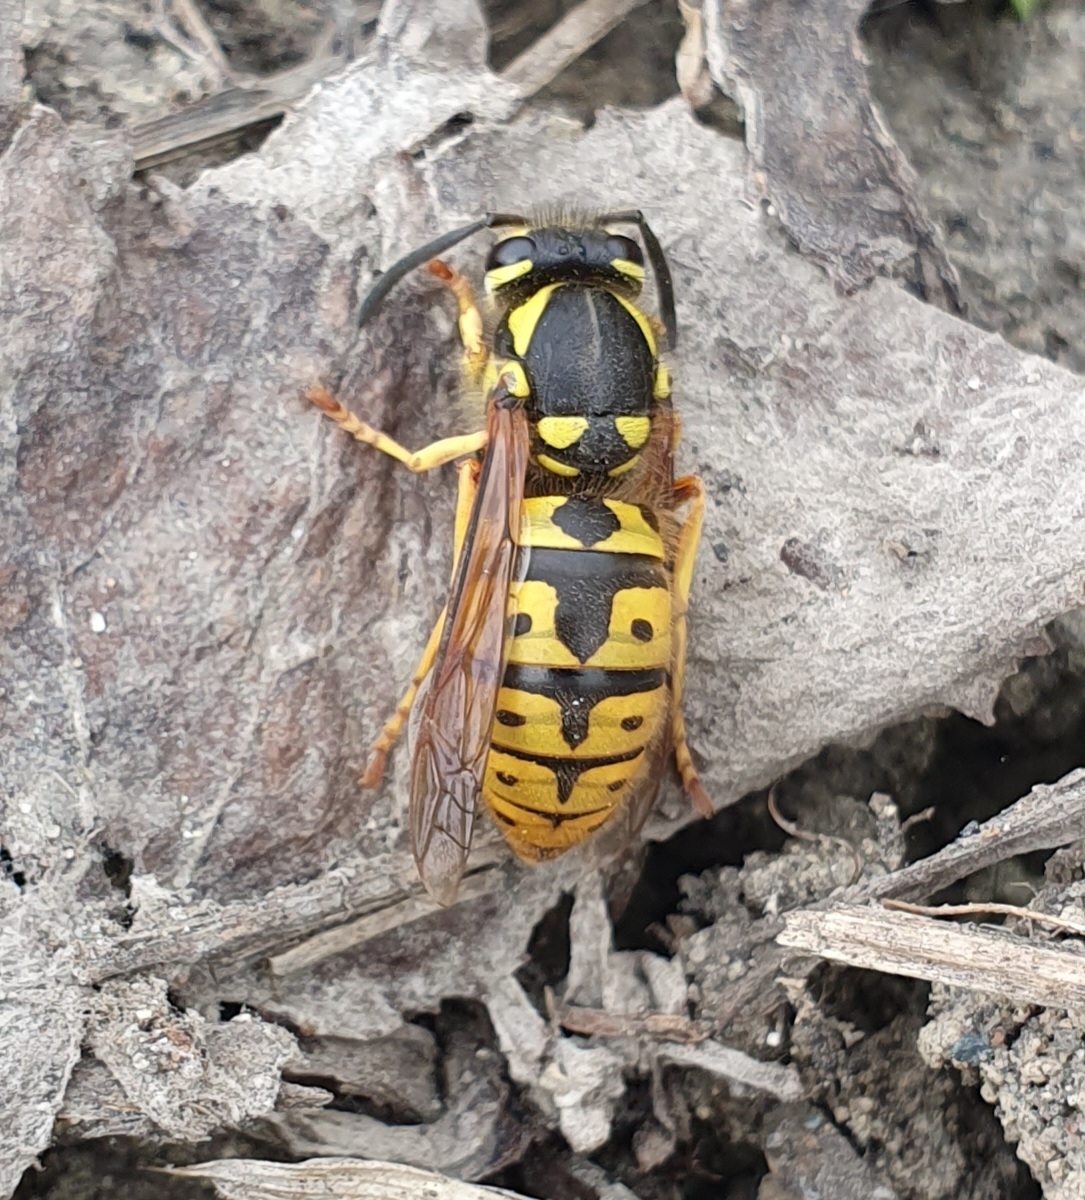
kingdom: Animalia
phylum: Arthropoda
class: Insecta
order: Hymenoptera
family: Vespidae
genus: Vespula
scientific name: Vespula germanica
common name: German wasp
